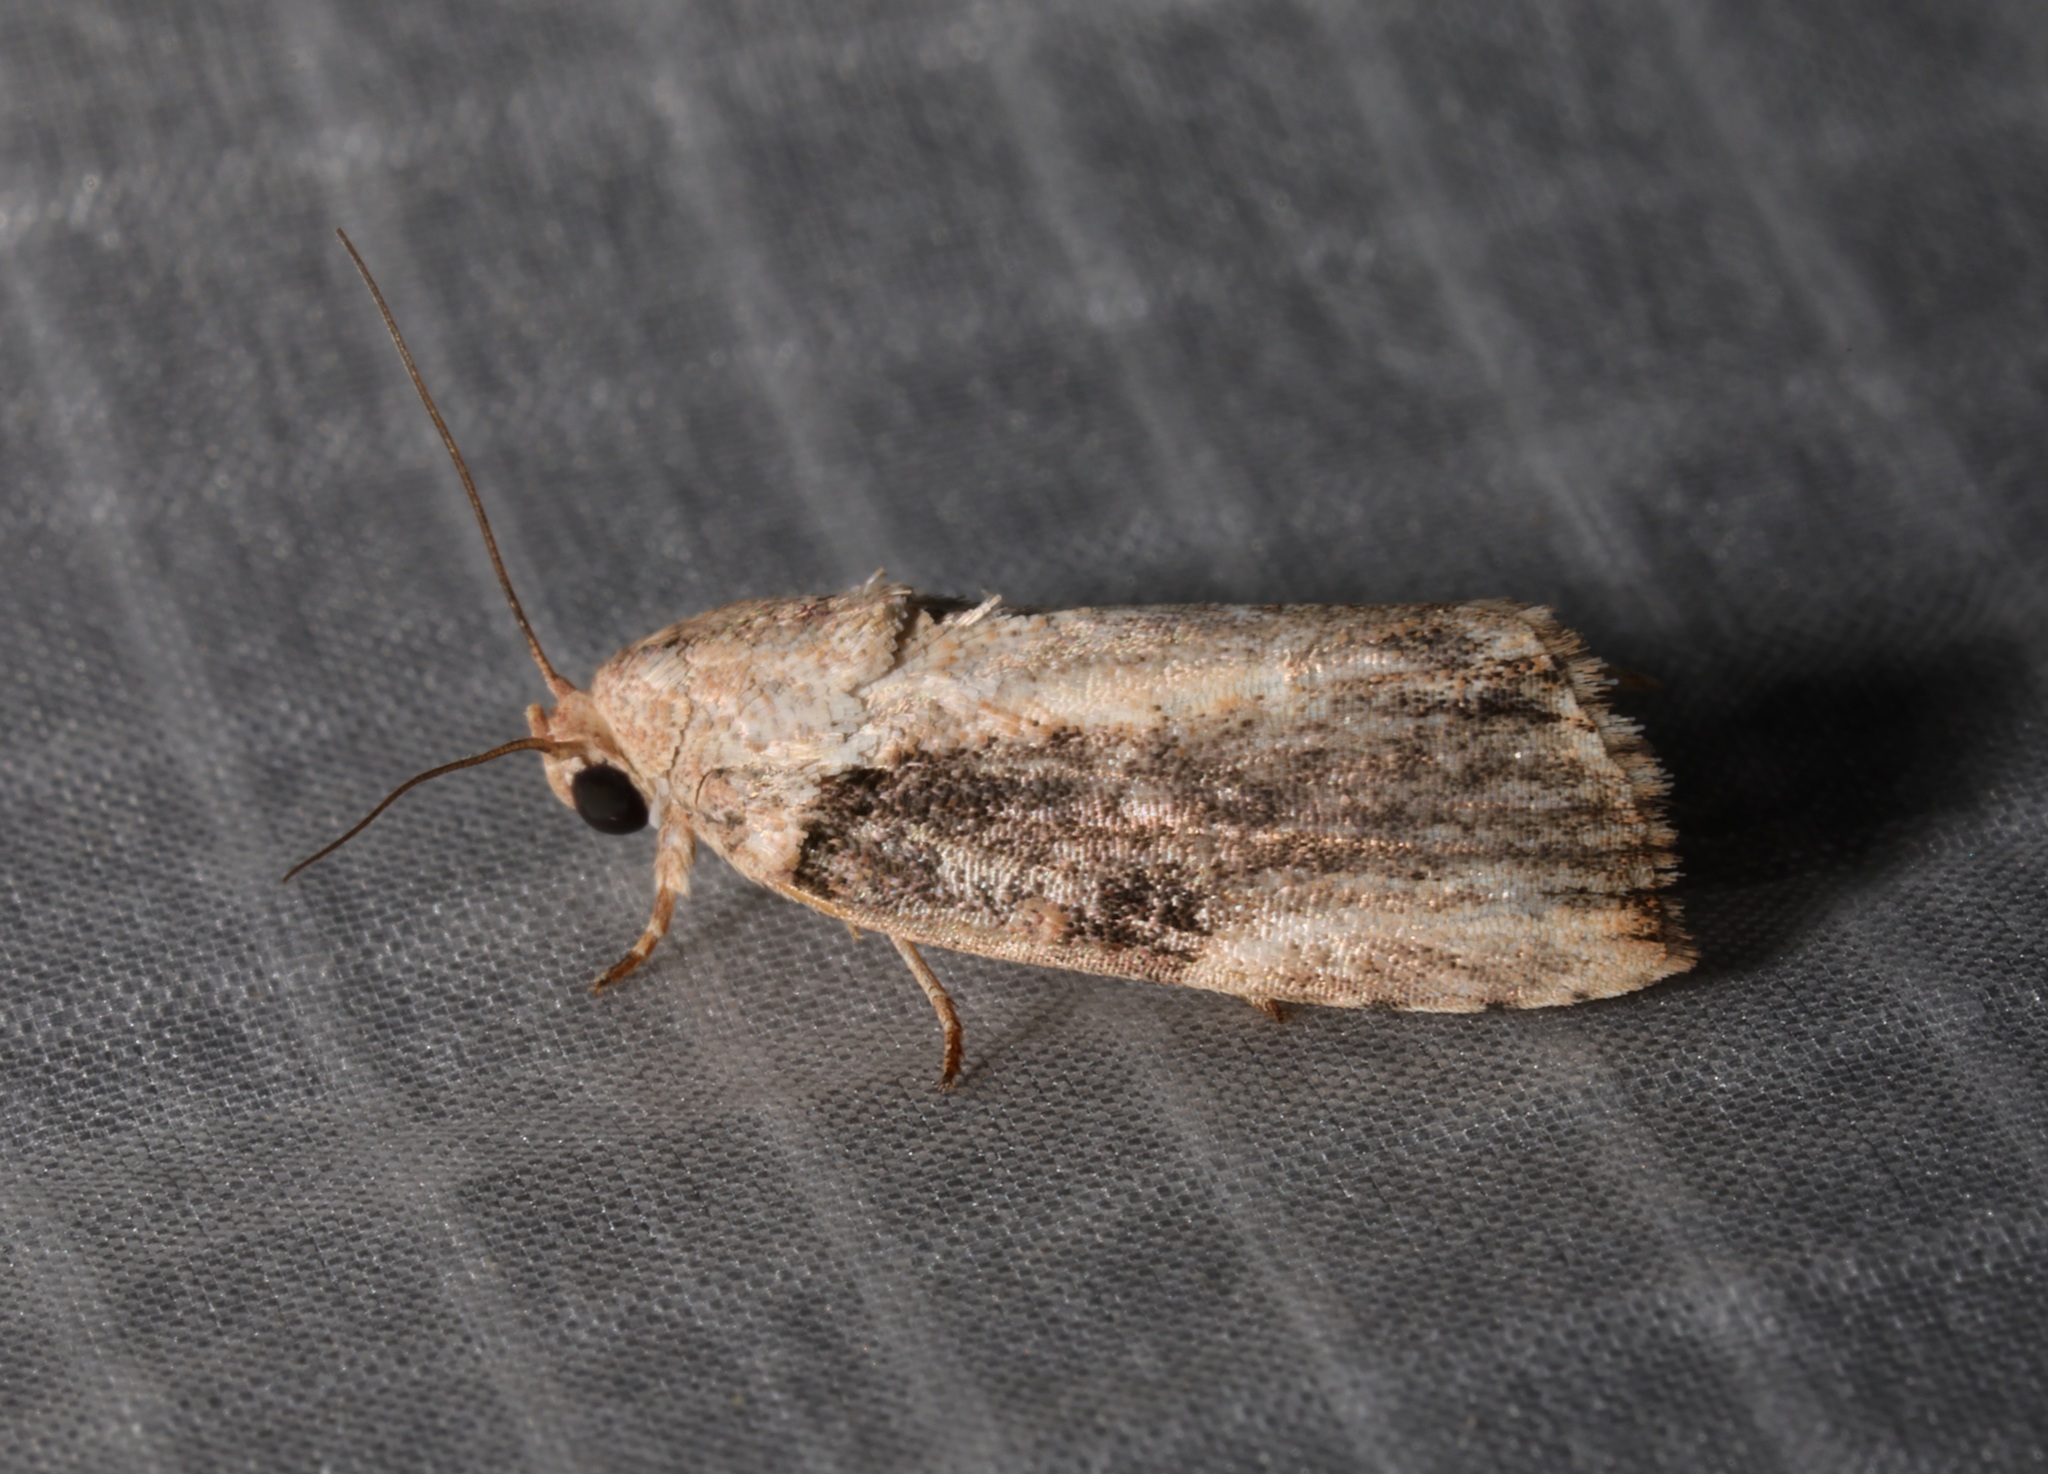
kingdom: Animalia
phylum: Arthropoda
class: Insecta
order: Lepidoptera
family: Nolidae
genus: Etanna
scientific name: Etanna breviuscula
